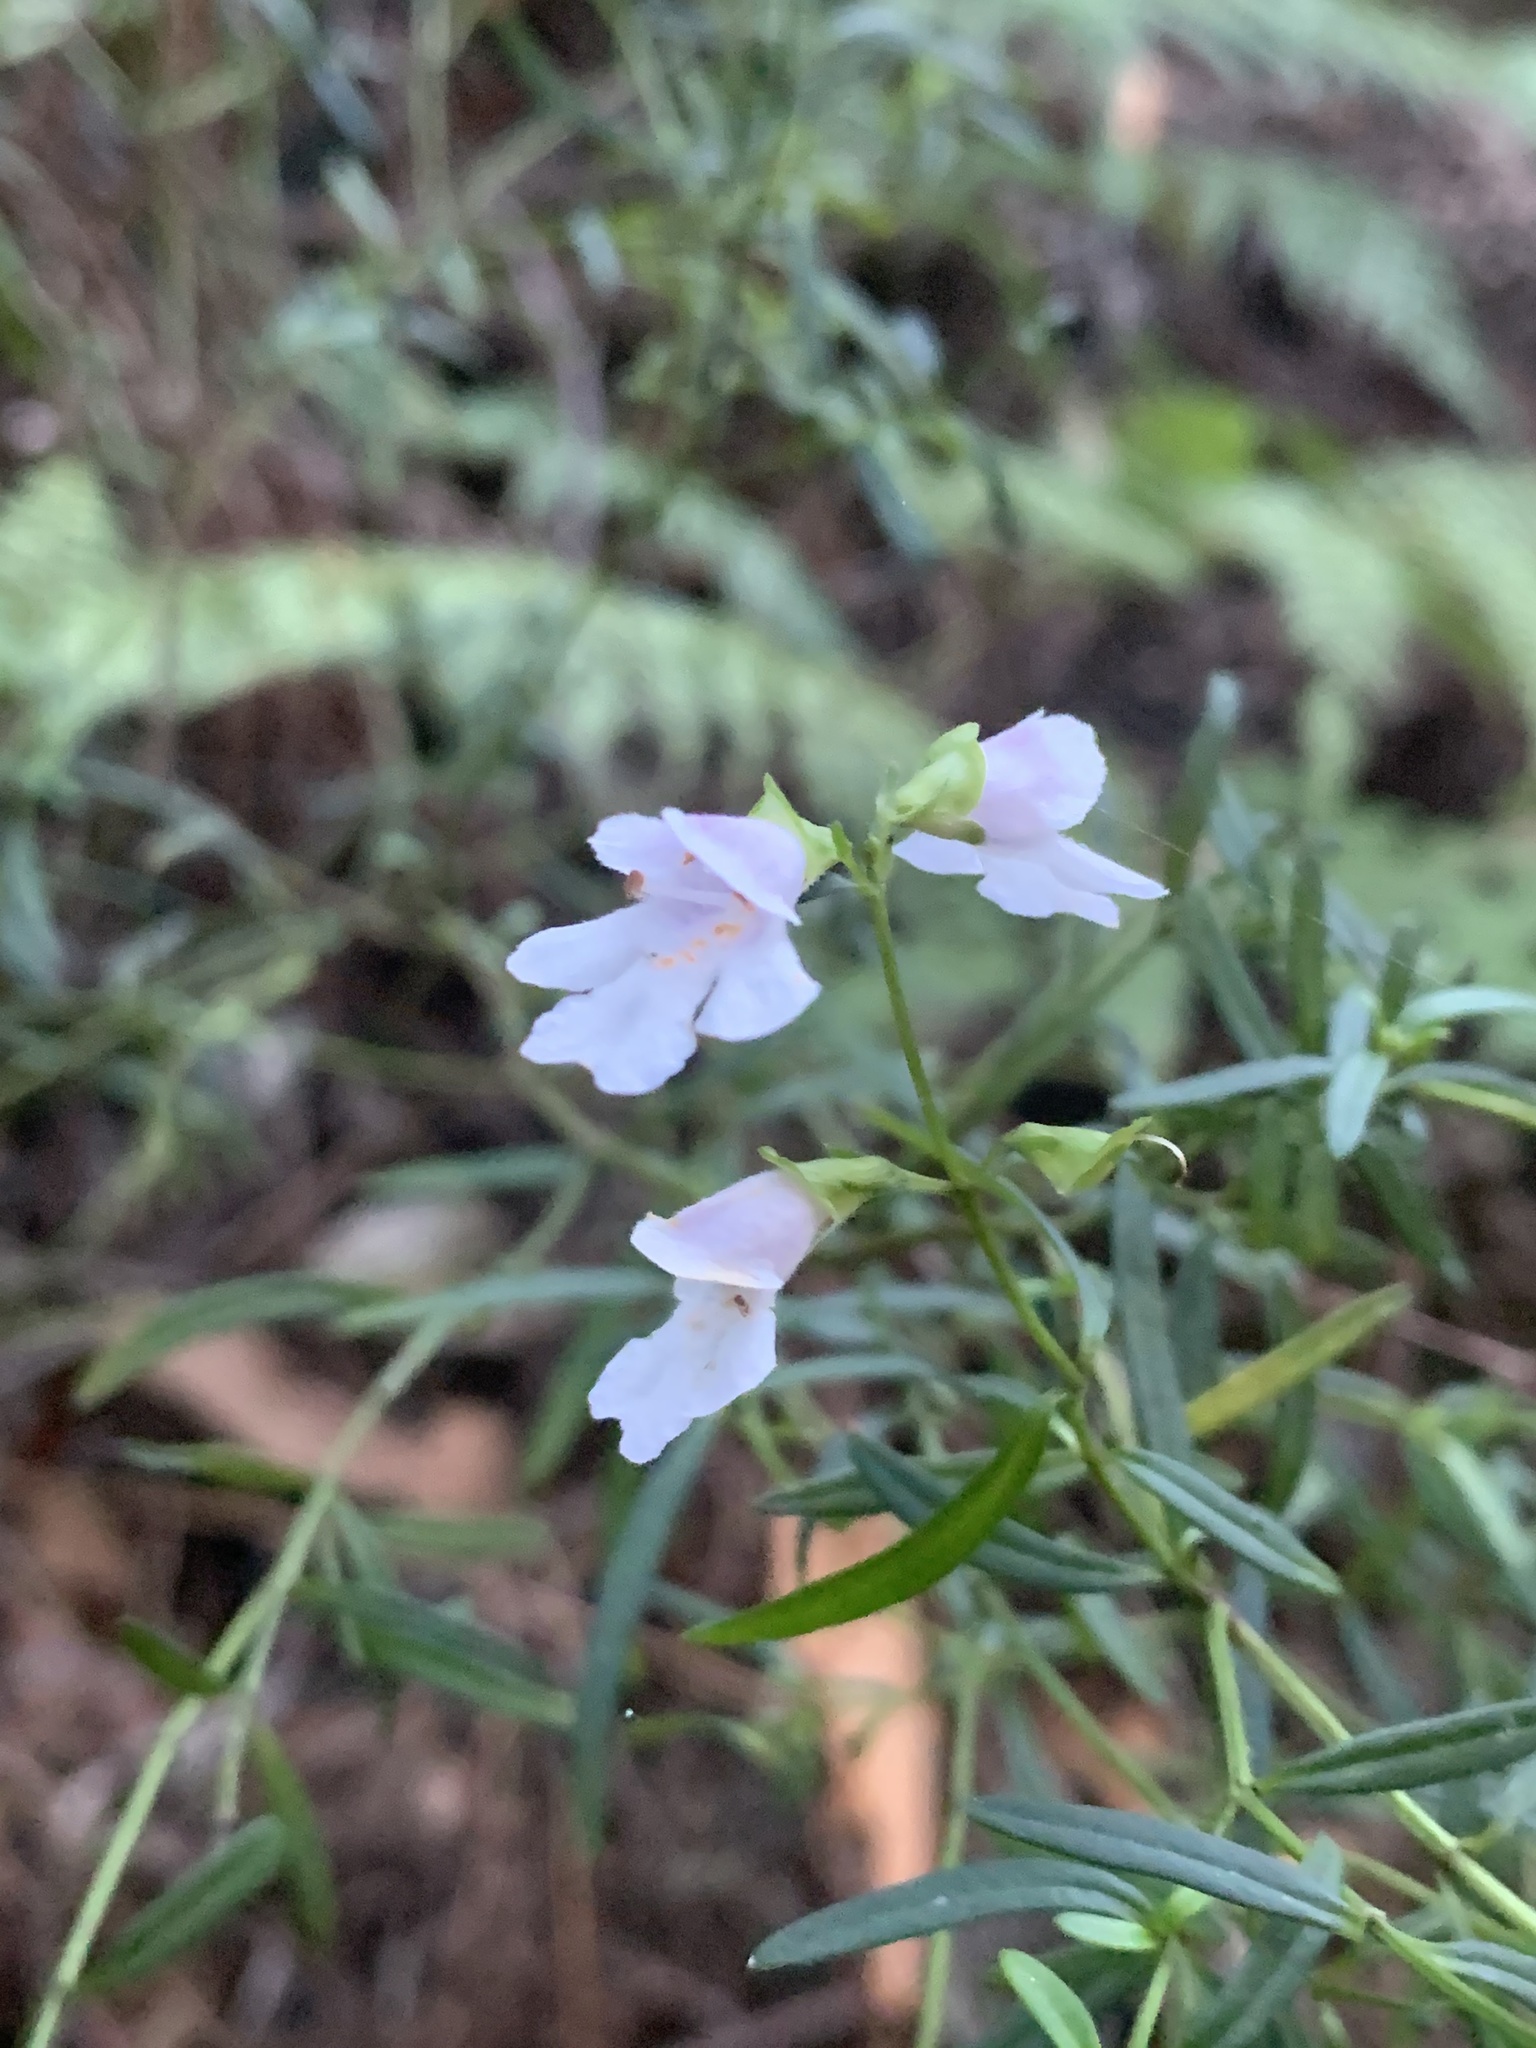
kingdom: Plantae
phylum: Tracheophyta
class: Magnoliopsida
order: Lamiales
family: Lamiaceae
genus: Prostanthera
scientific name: Prostanthera linearis
